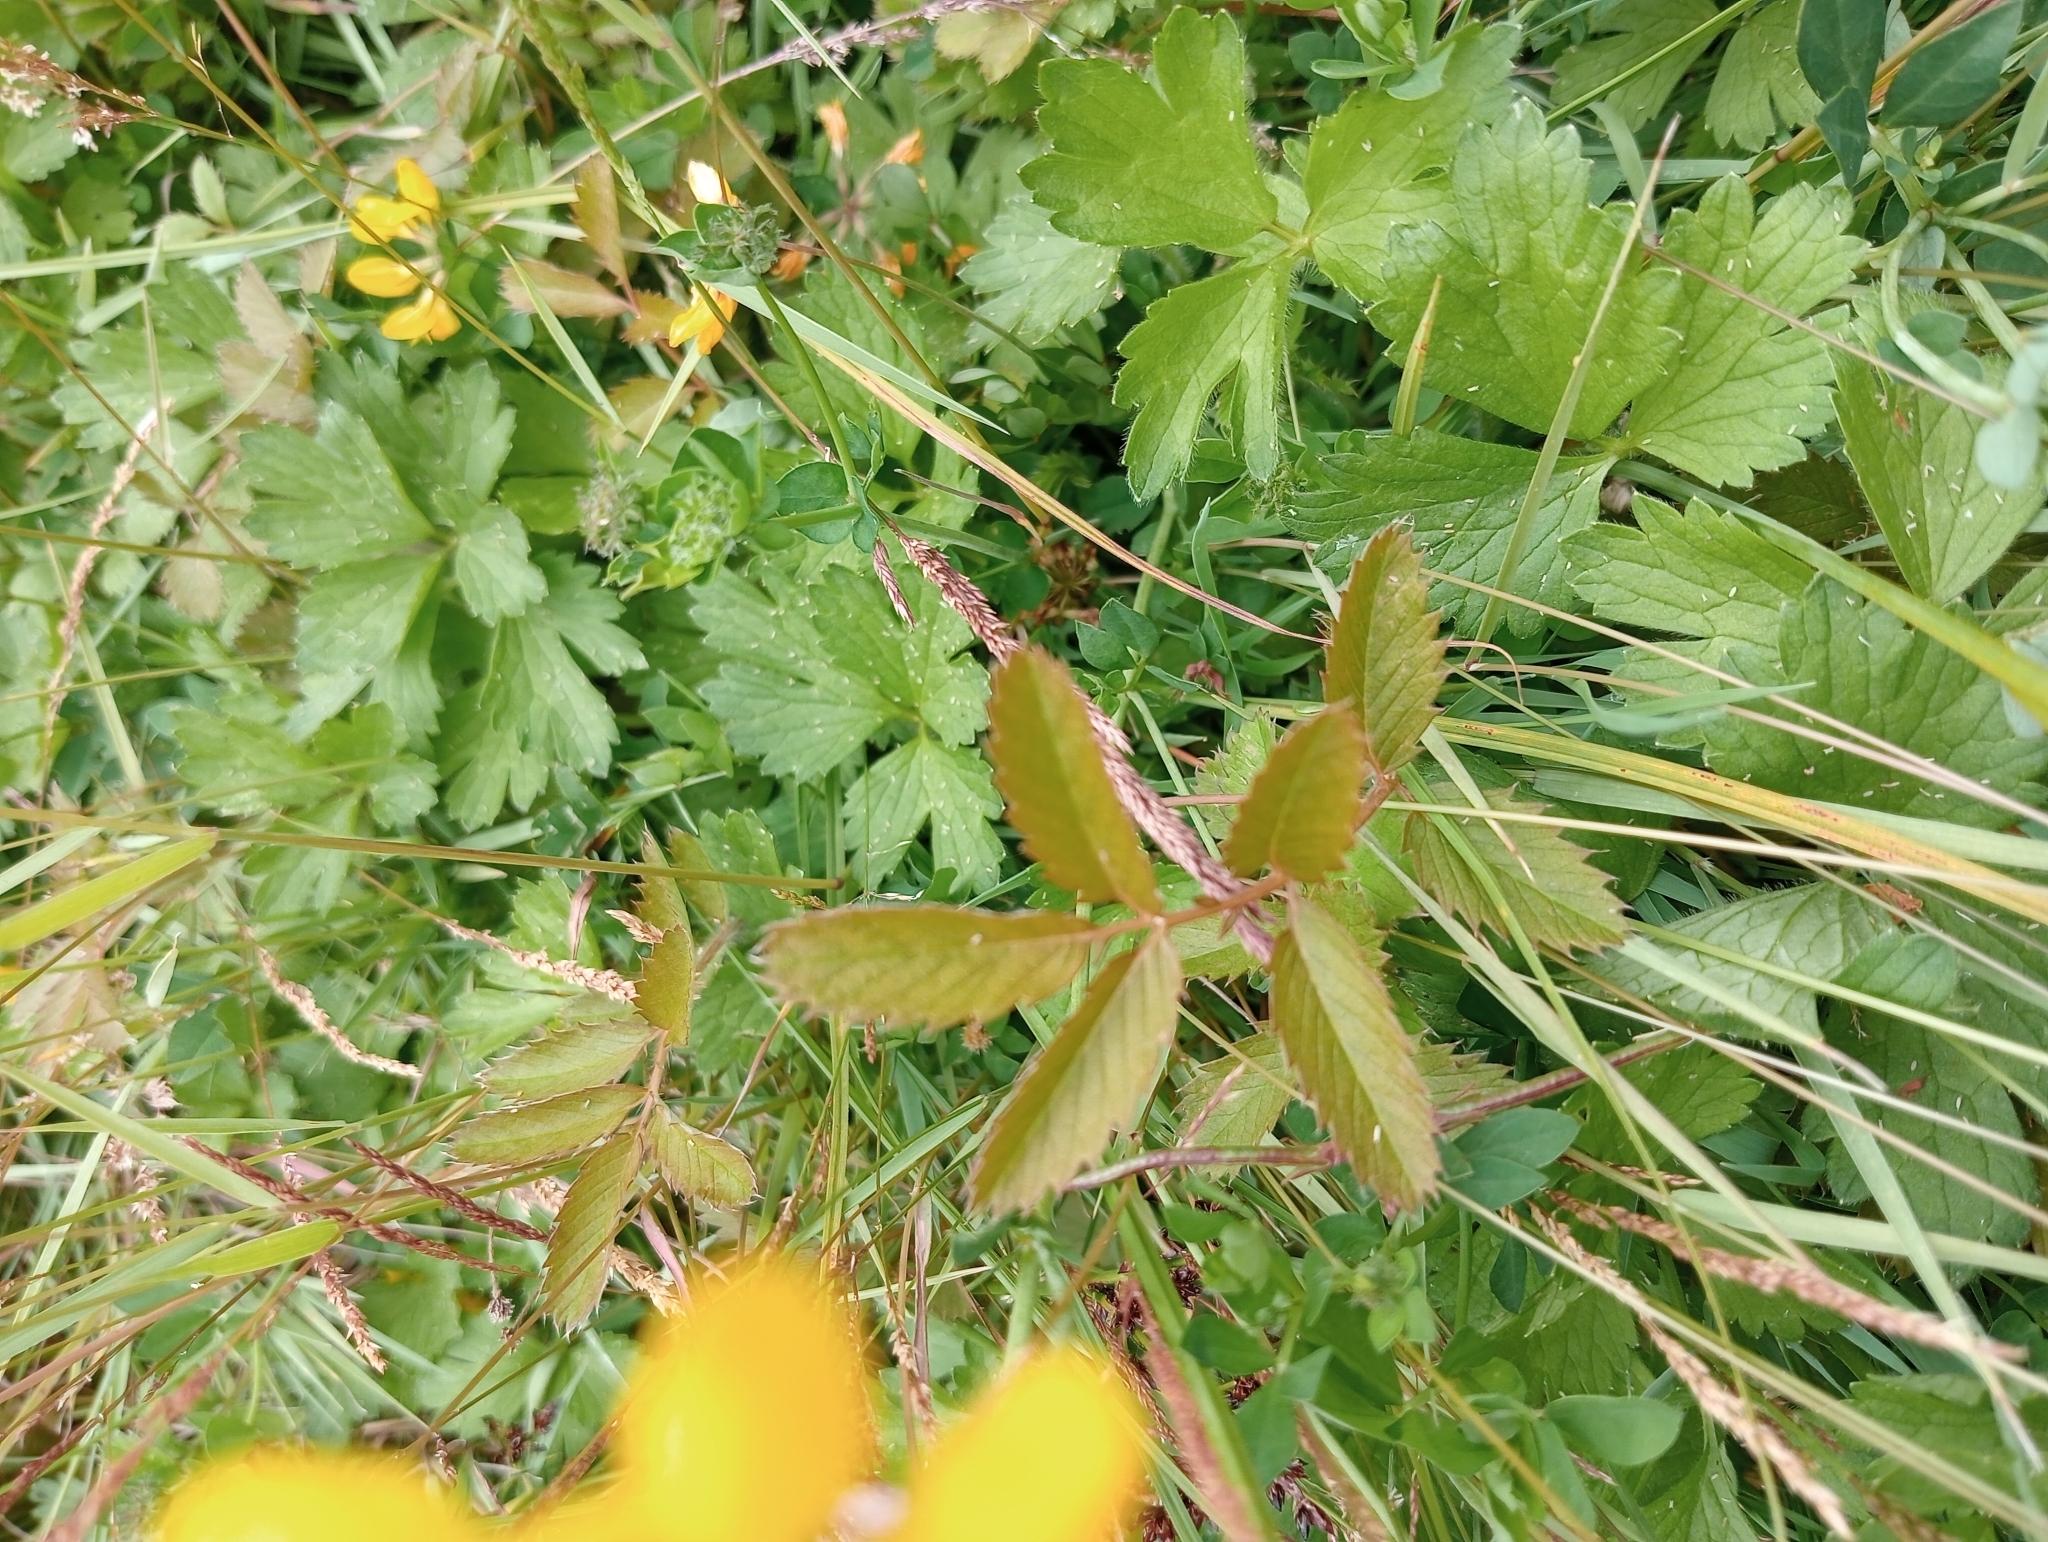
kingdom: Plantae
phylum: Tracheophyta
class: Magnoliopsida
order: Rosales
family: Rosaceae
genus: Argentina
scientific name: Argentina anserinoides
